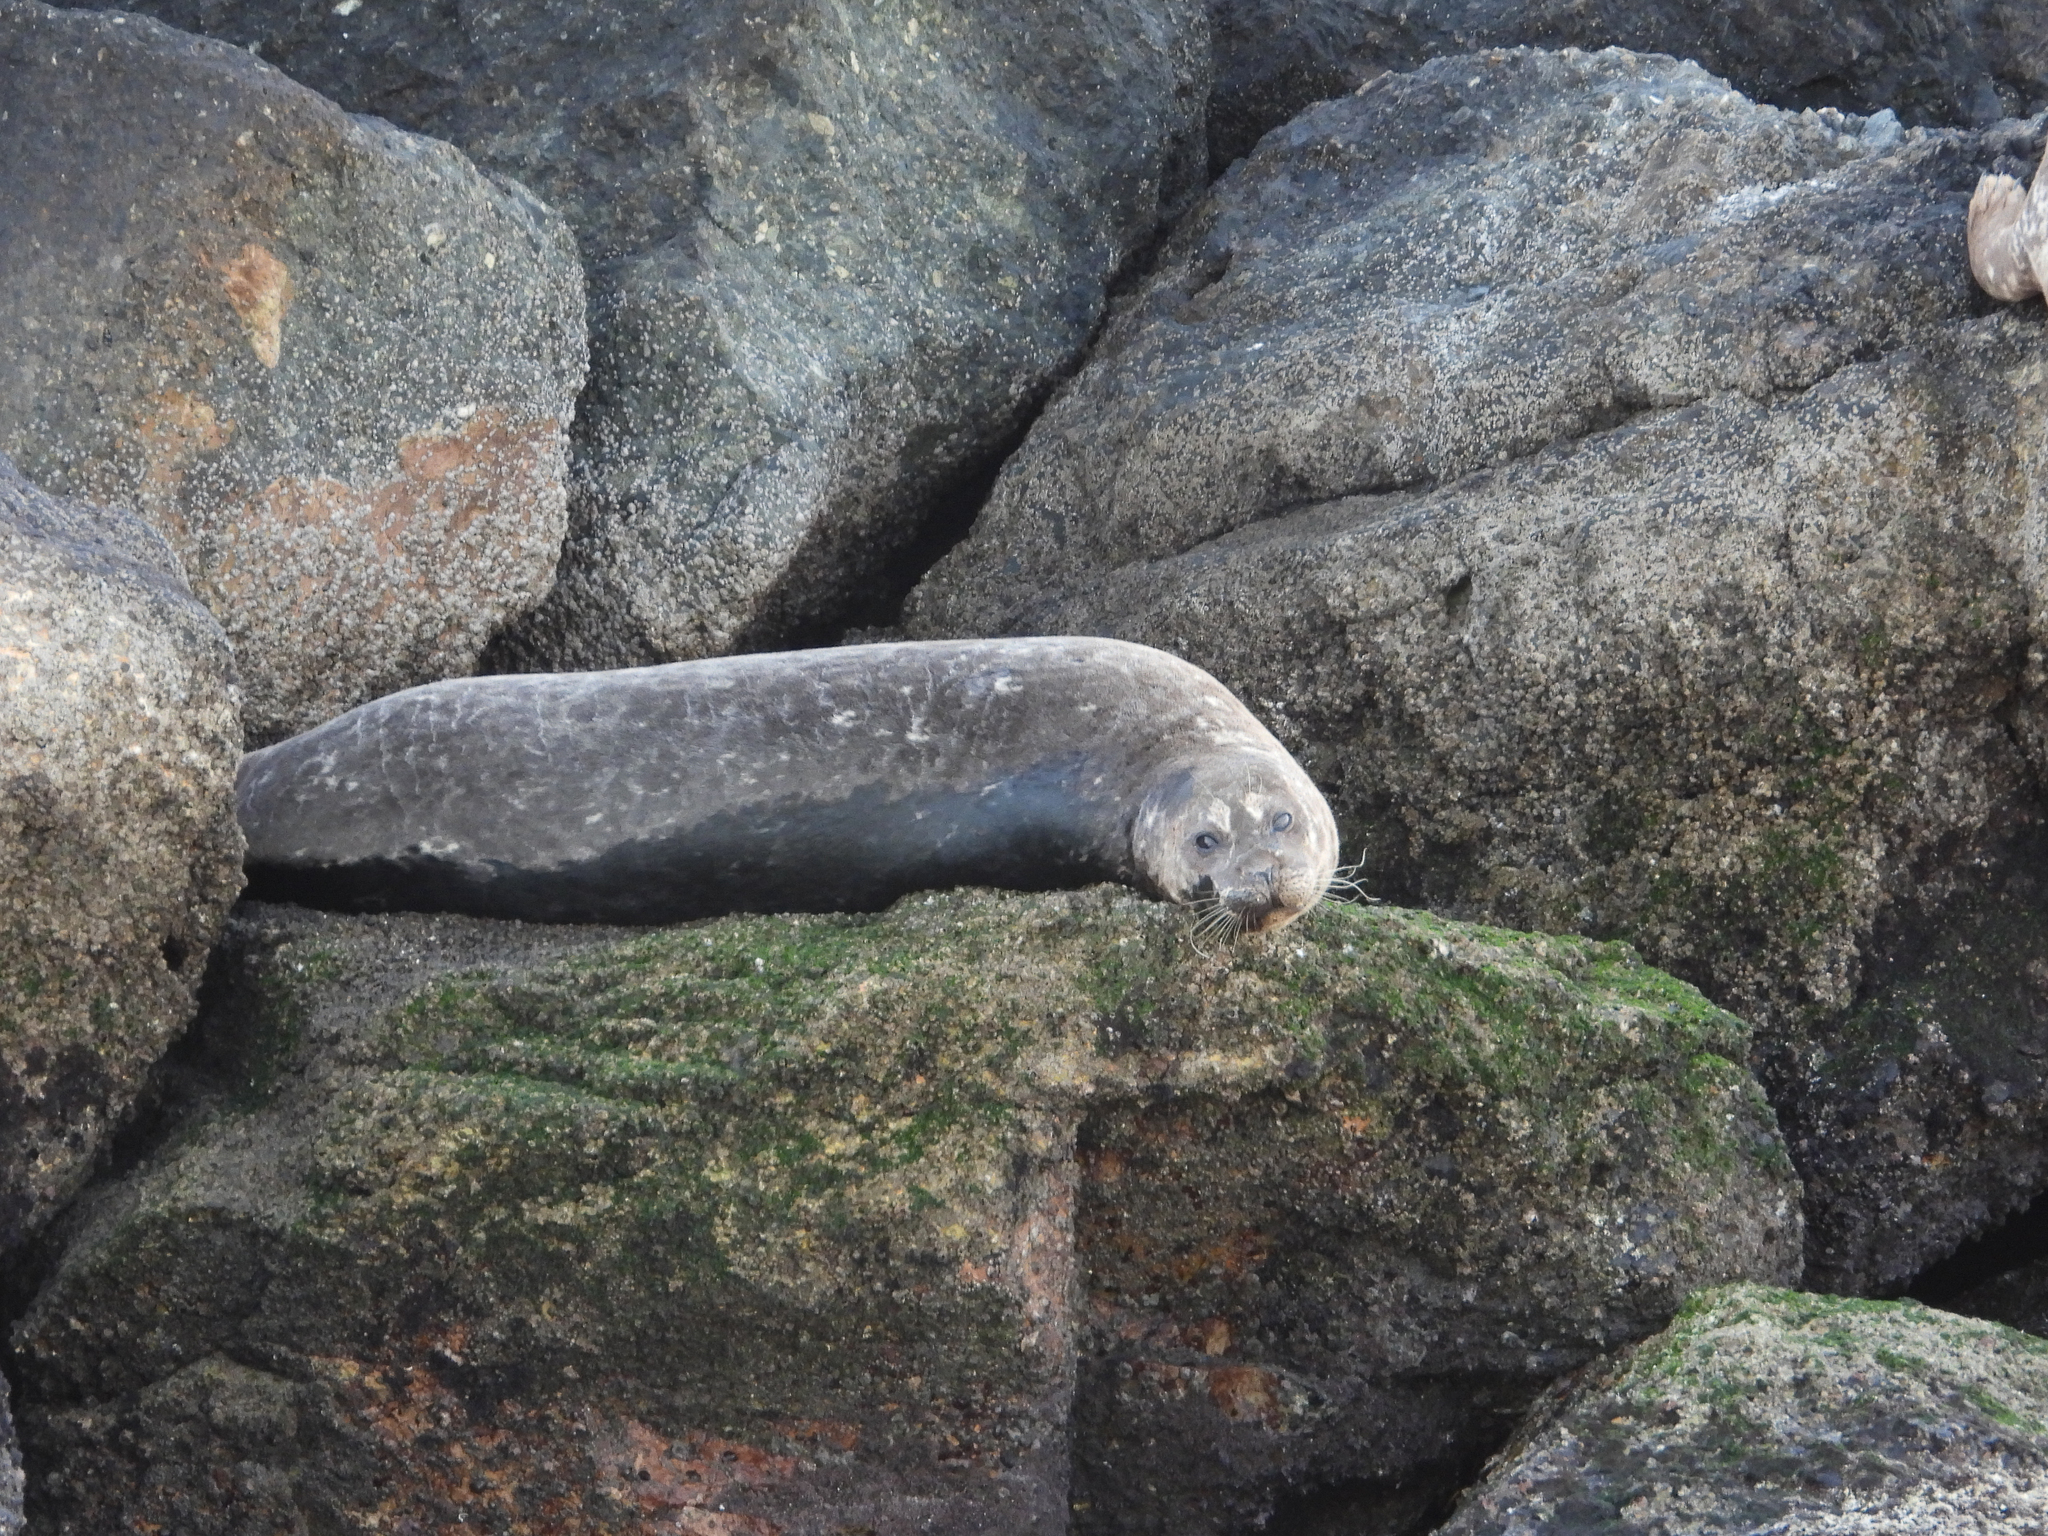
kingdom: Animalia
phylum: Chordata
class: Mammalia
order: Carnivora
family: Phocidae
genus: Phoca
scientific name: Phoca vitulina
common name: Harbor seal
